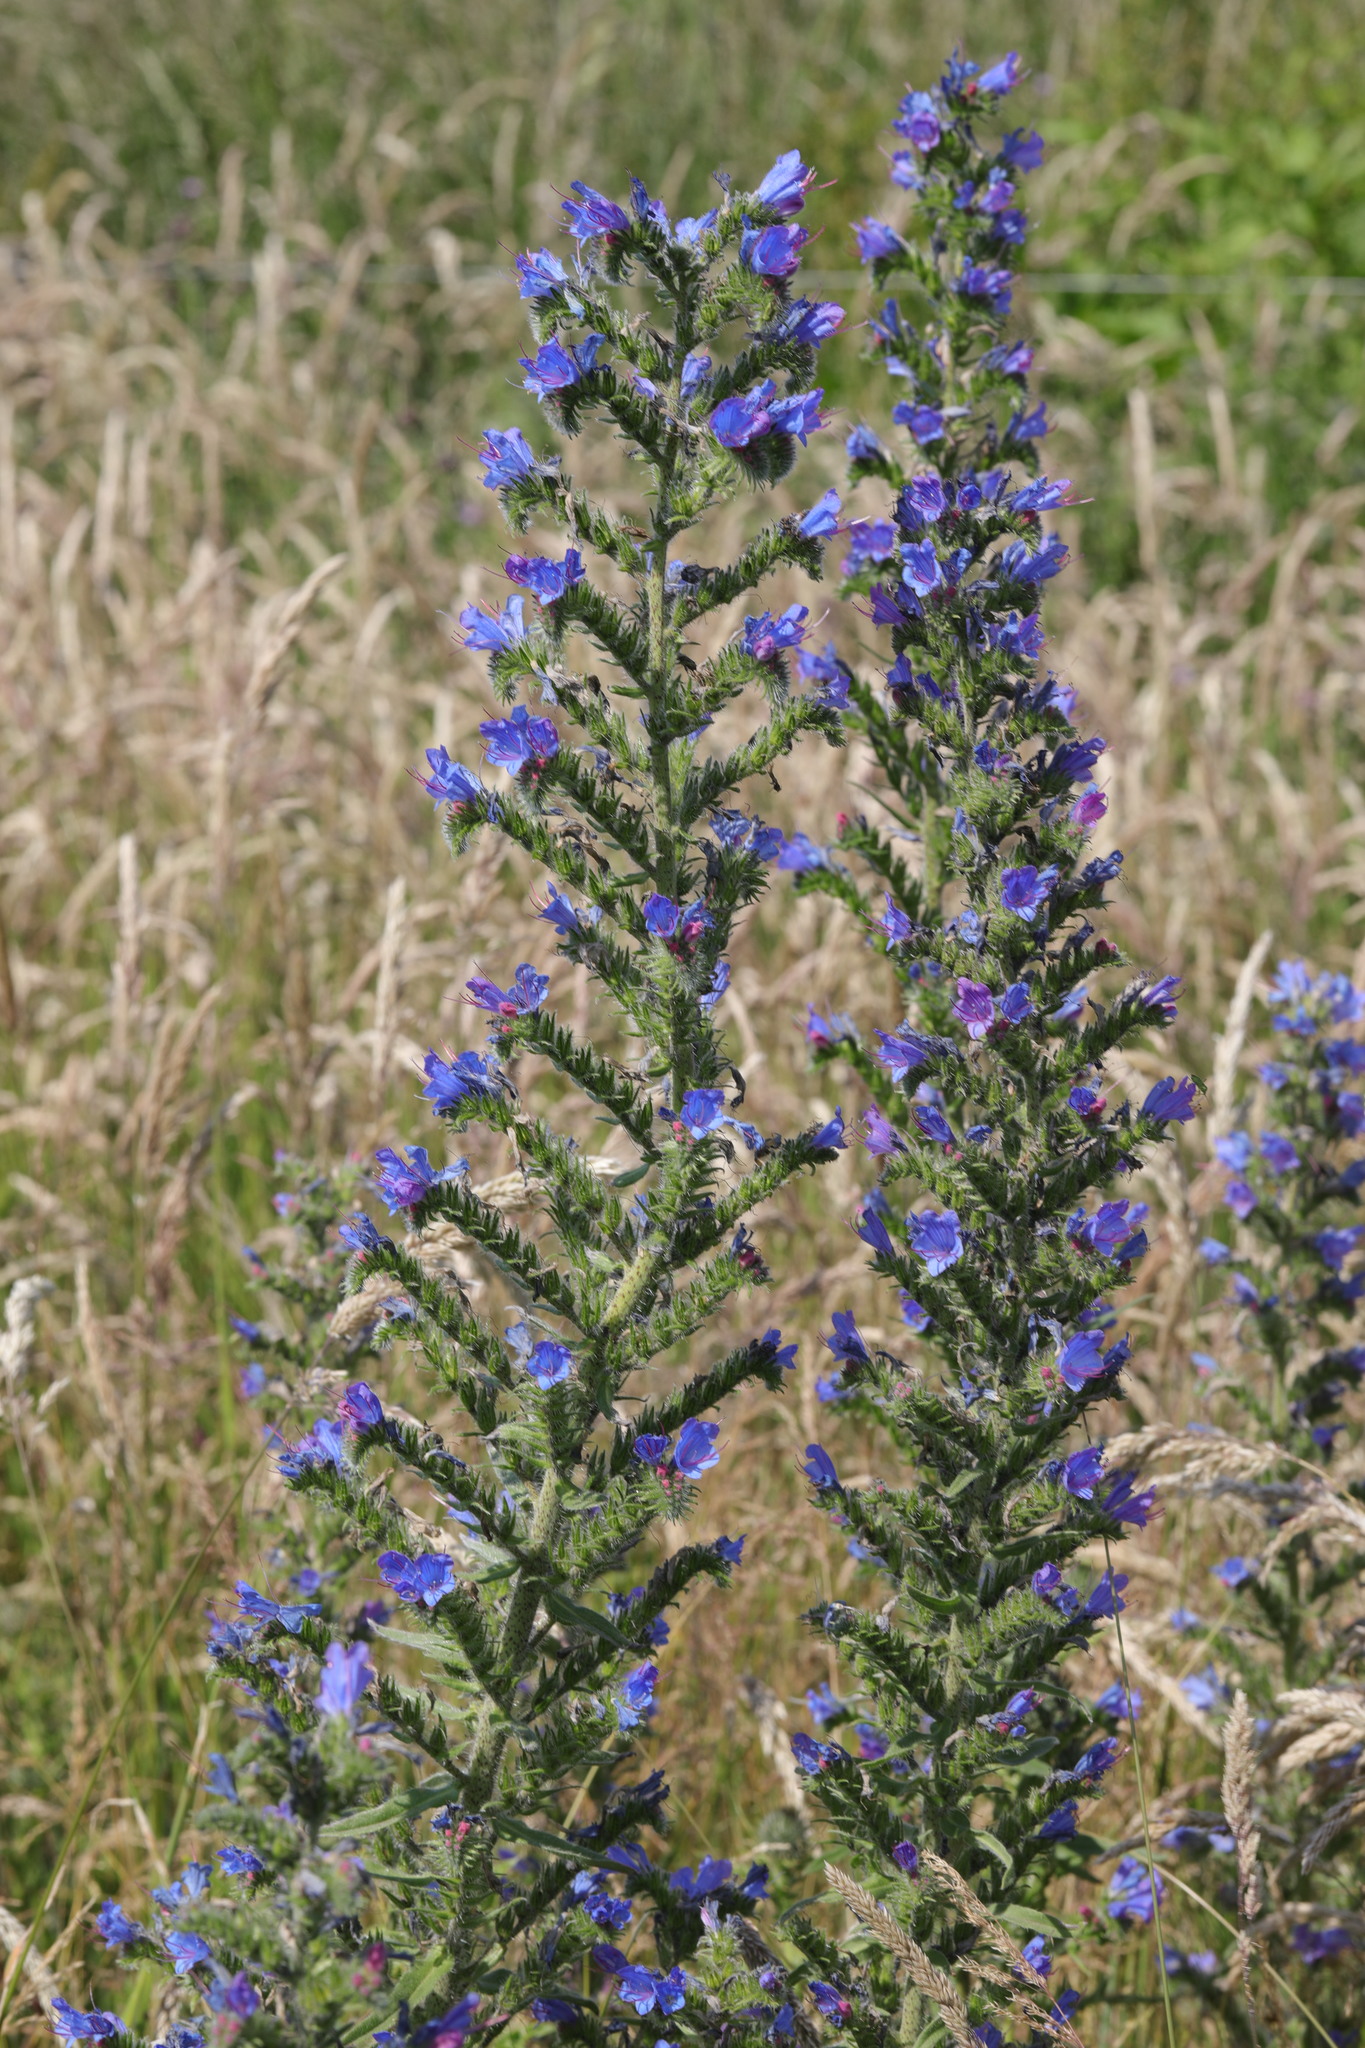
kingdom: Plantae
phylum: Tracheophyta
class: Magnoliopsida
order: Boraginales
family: Boraginaceae
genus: Echium
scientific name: Echium vulgare
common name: Common viper's bugloss
